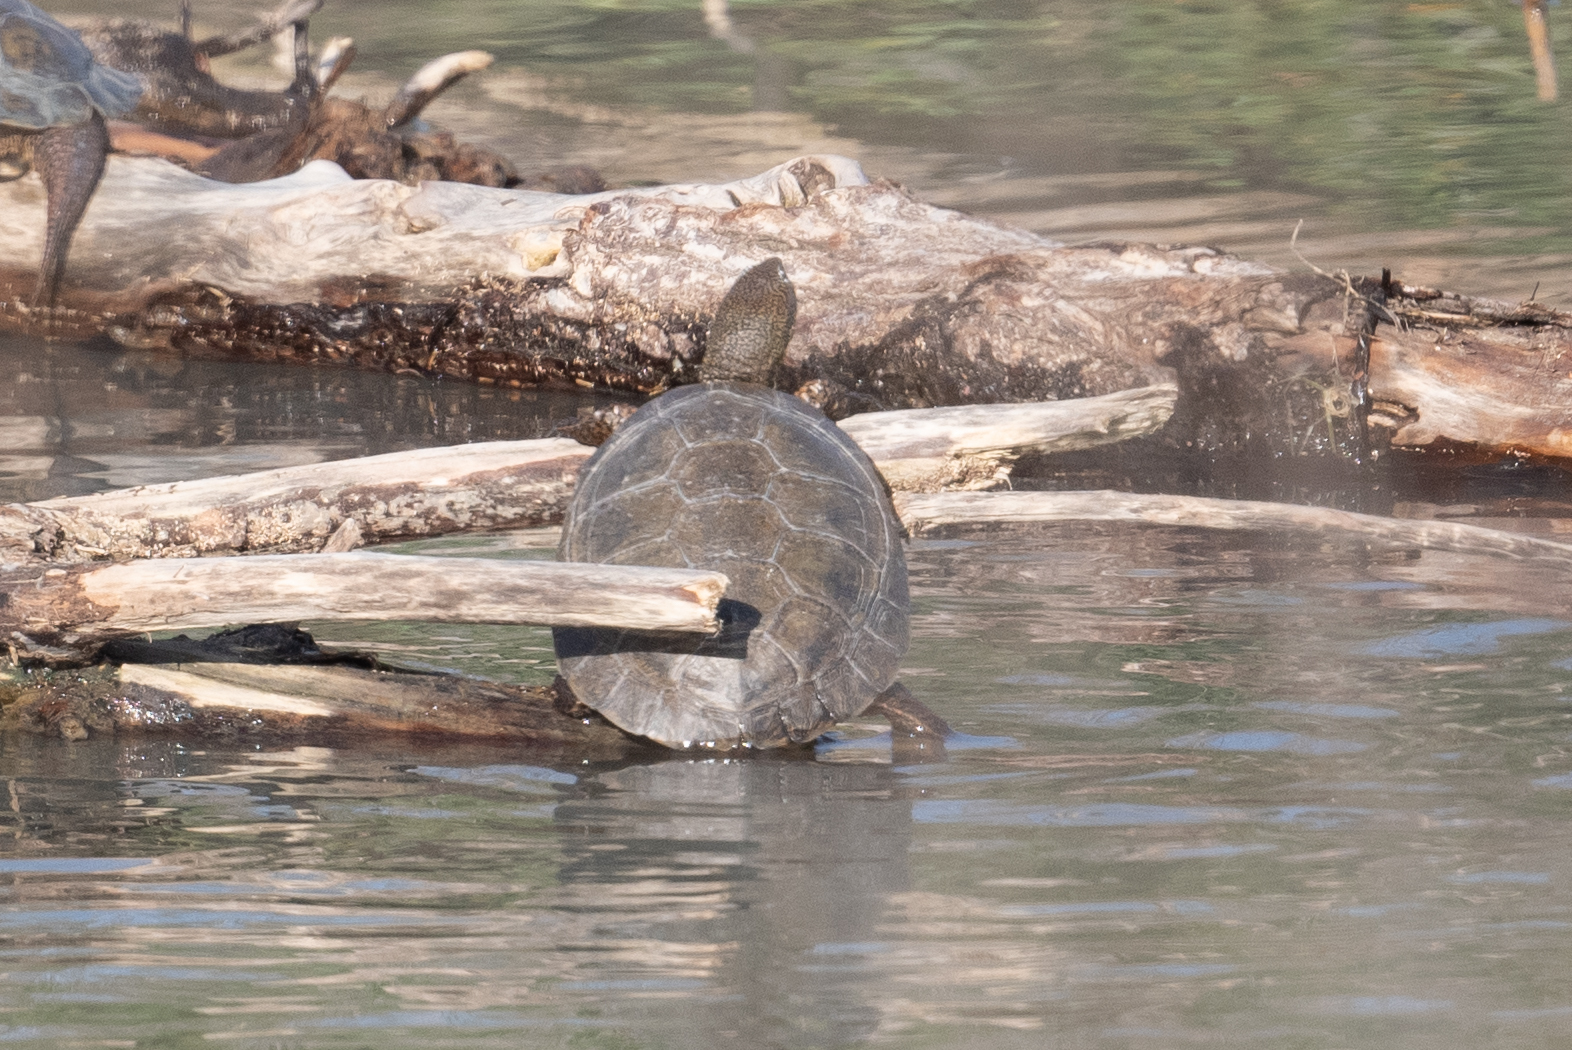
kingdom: Animalia
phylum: Chordata
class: Testudines
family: Emydidae
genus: Actinemys
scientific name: Actinemys marmorata
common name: Western pond turtle
